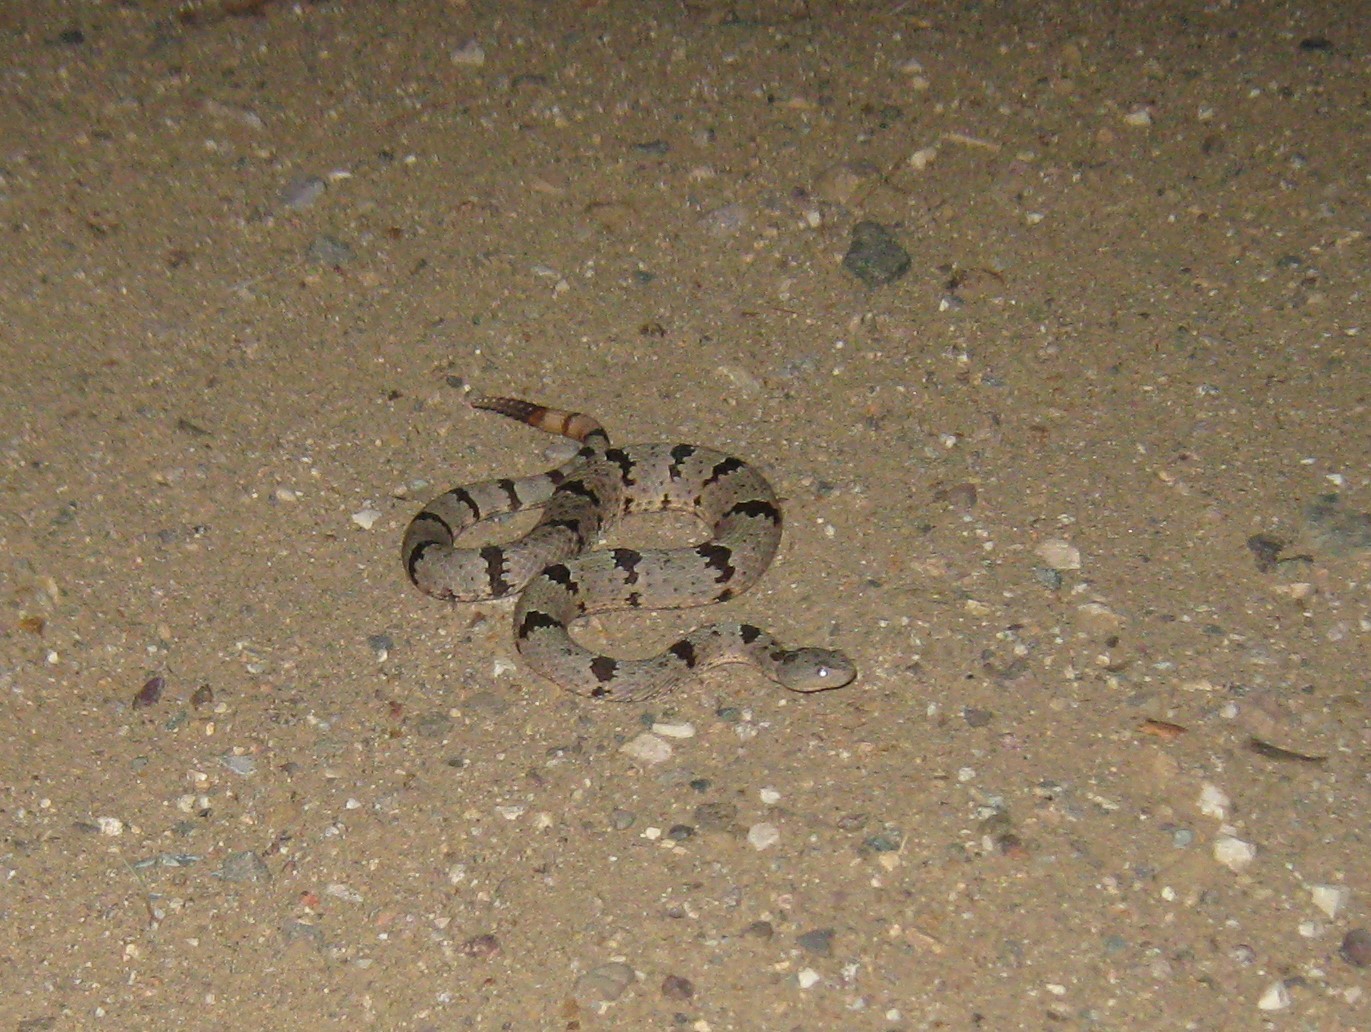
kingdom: Animalia
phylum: Chordata
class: Squamata
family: Viperidae
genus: Crotalus
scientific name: Crotalus lepidus
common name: Rock rattlesnake
